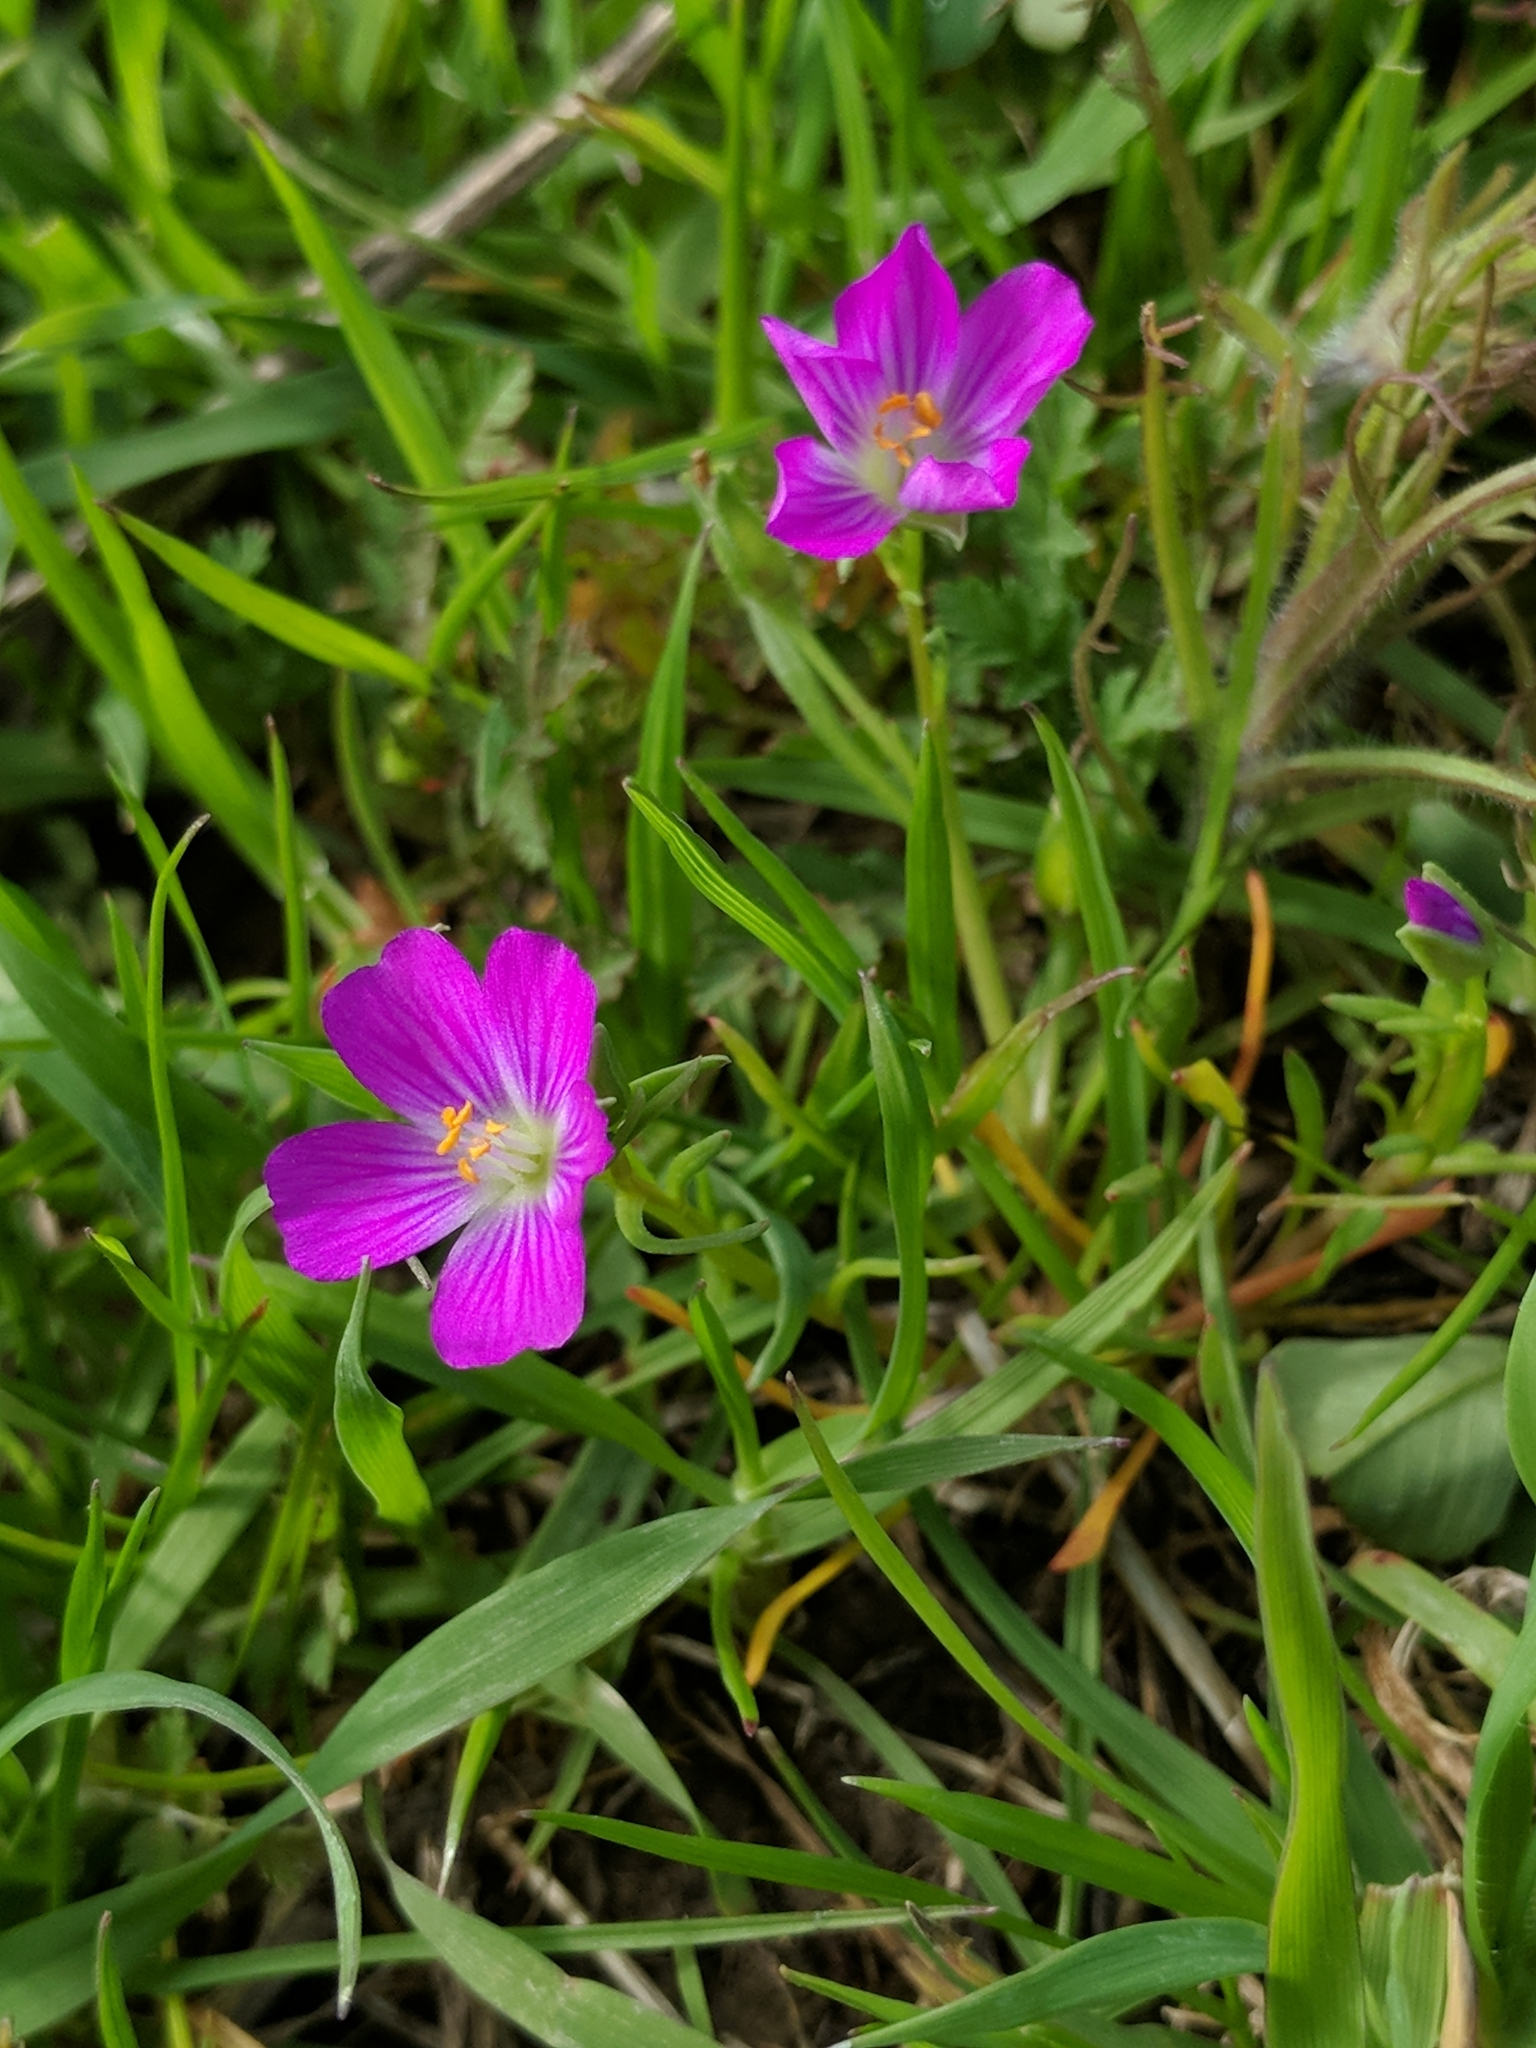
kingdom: Plantae
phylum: Tracheophyta
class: Magnoliopsida
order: Caryophyllales
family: Montiaceae
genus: Calandrinia
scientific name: Calandrinia menziesii
